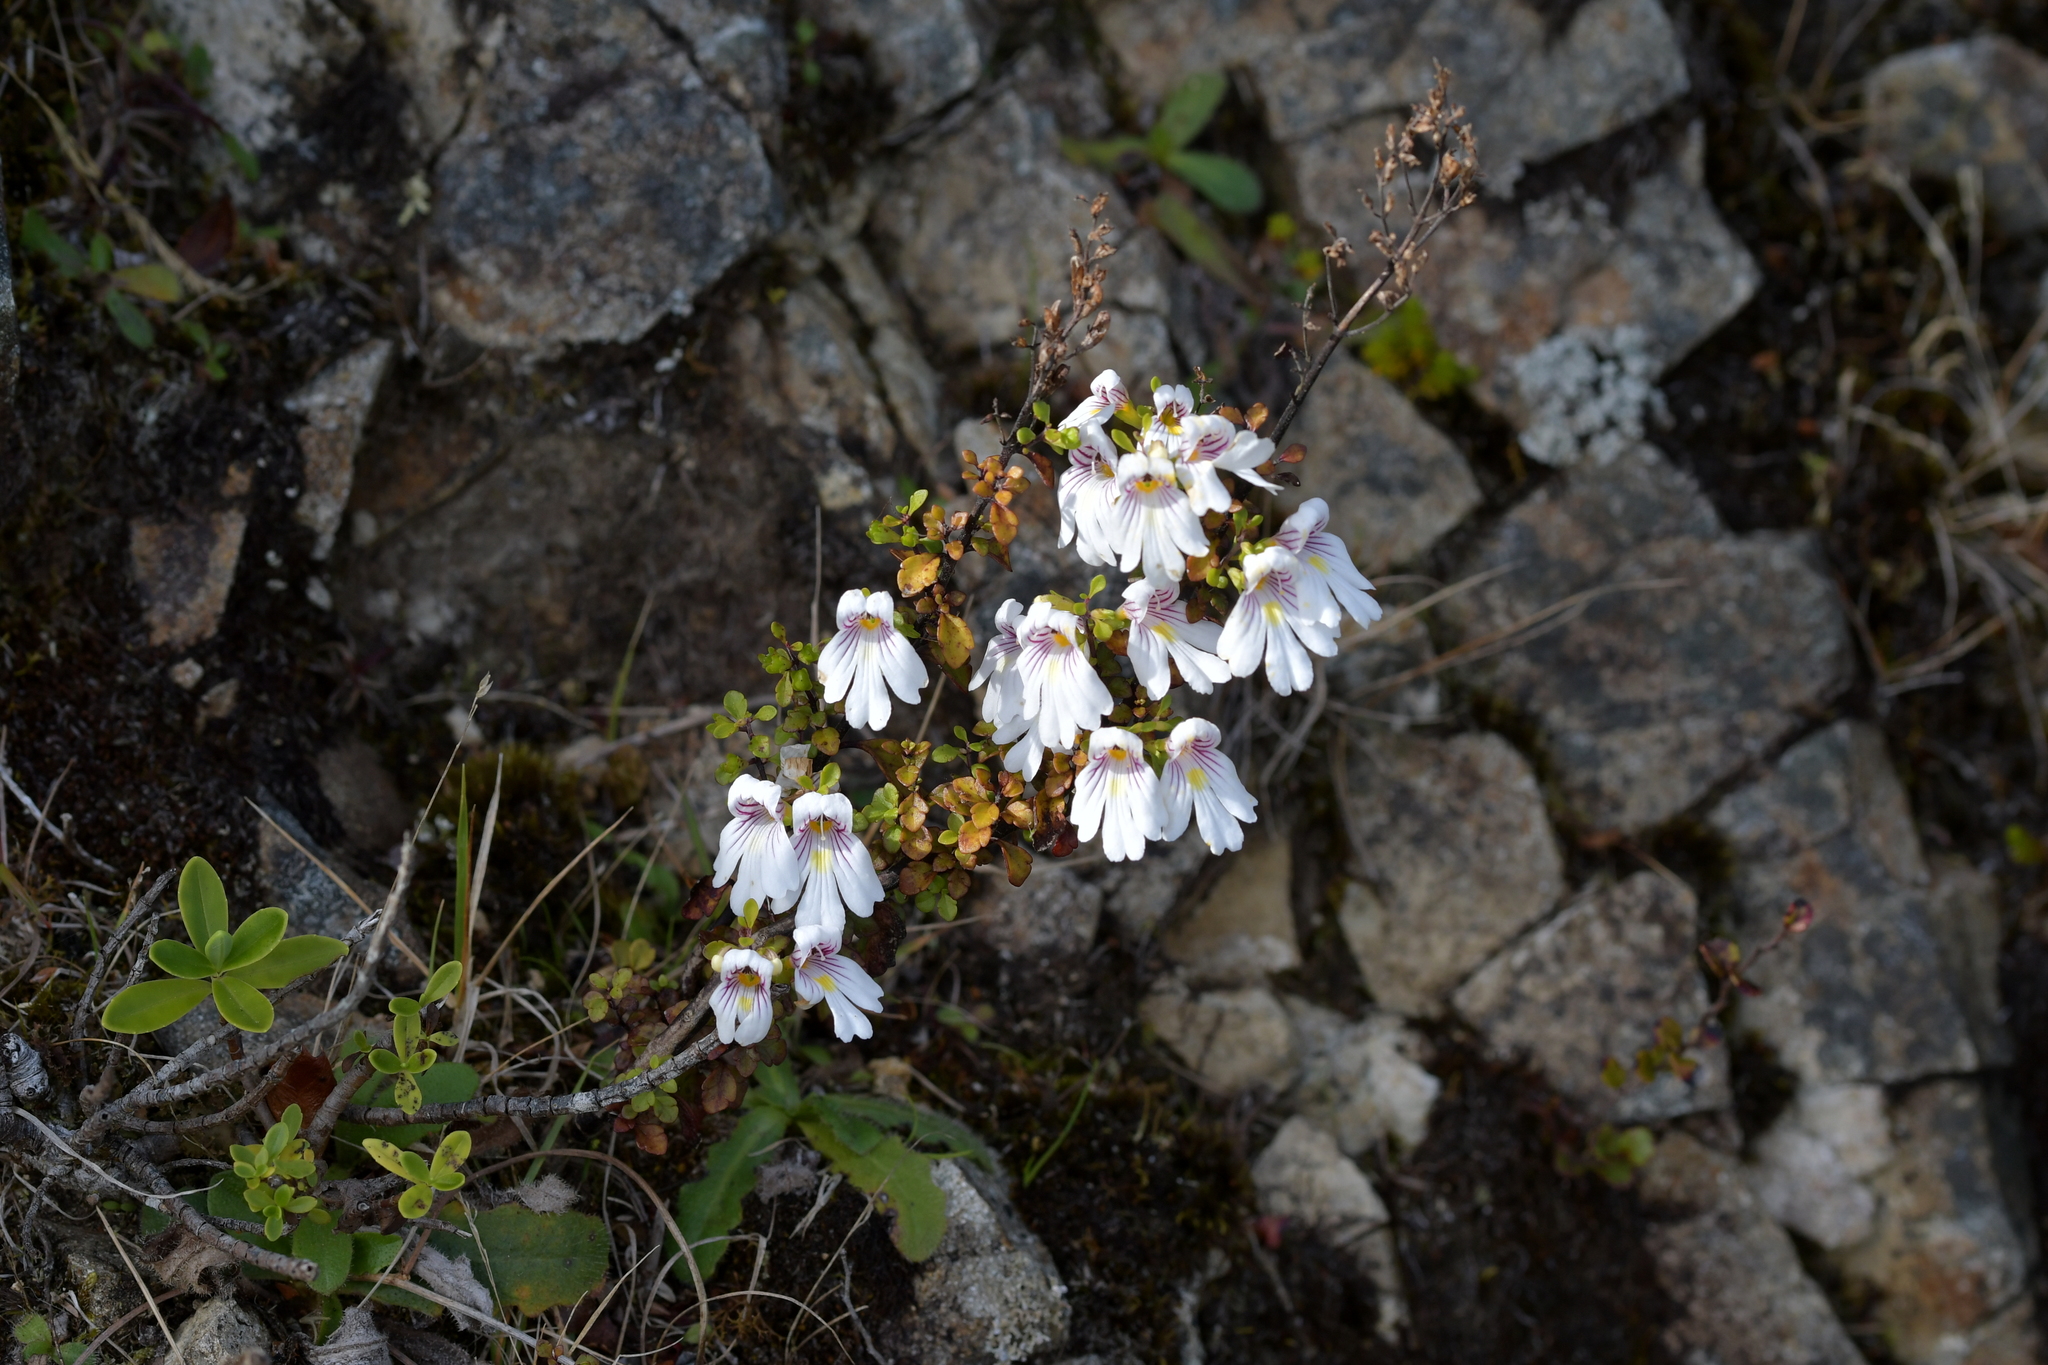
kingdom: Plantae
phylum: Tracheophyta
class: Magnoliopsida
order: Lamiales
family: Orobanchaceae
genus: Euphrasia
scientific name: Euphrasia cuneata
